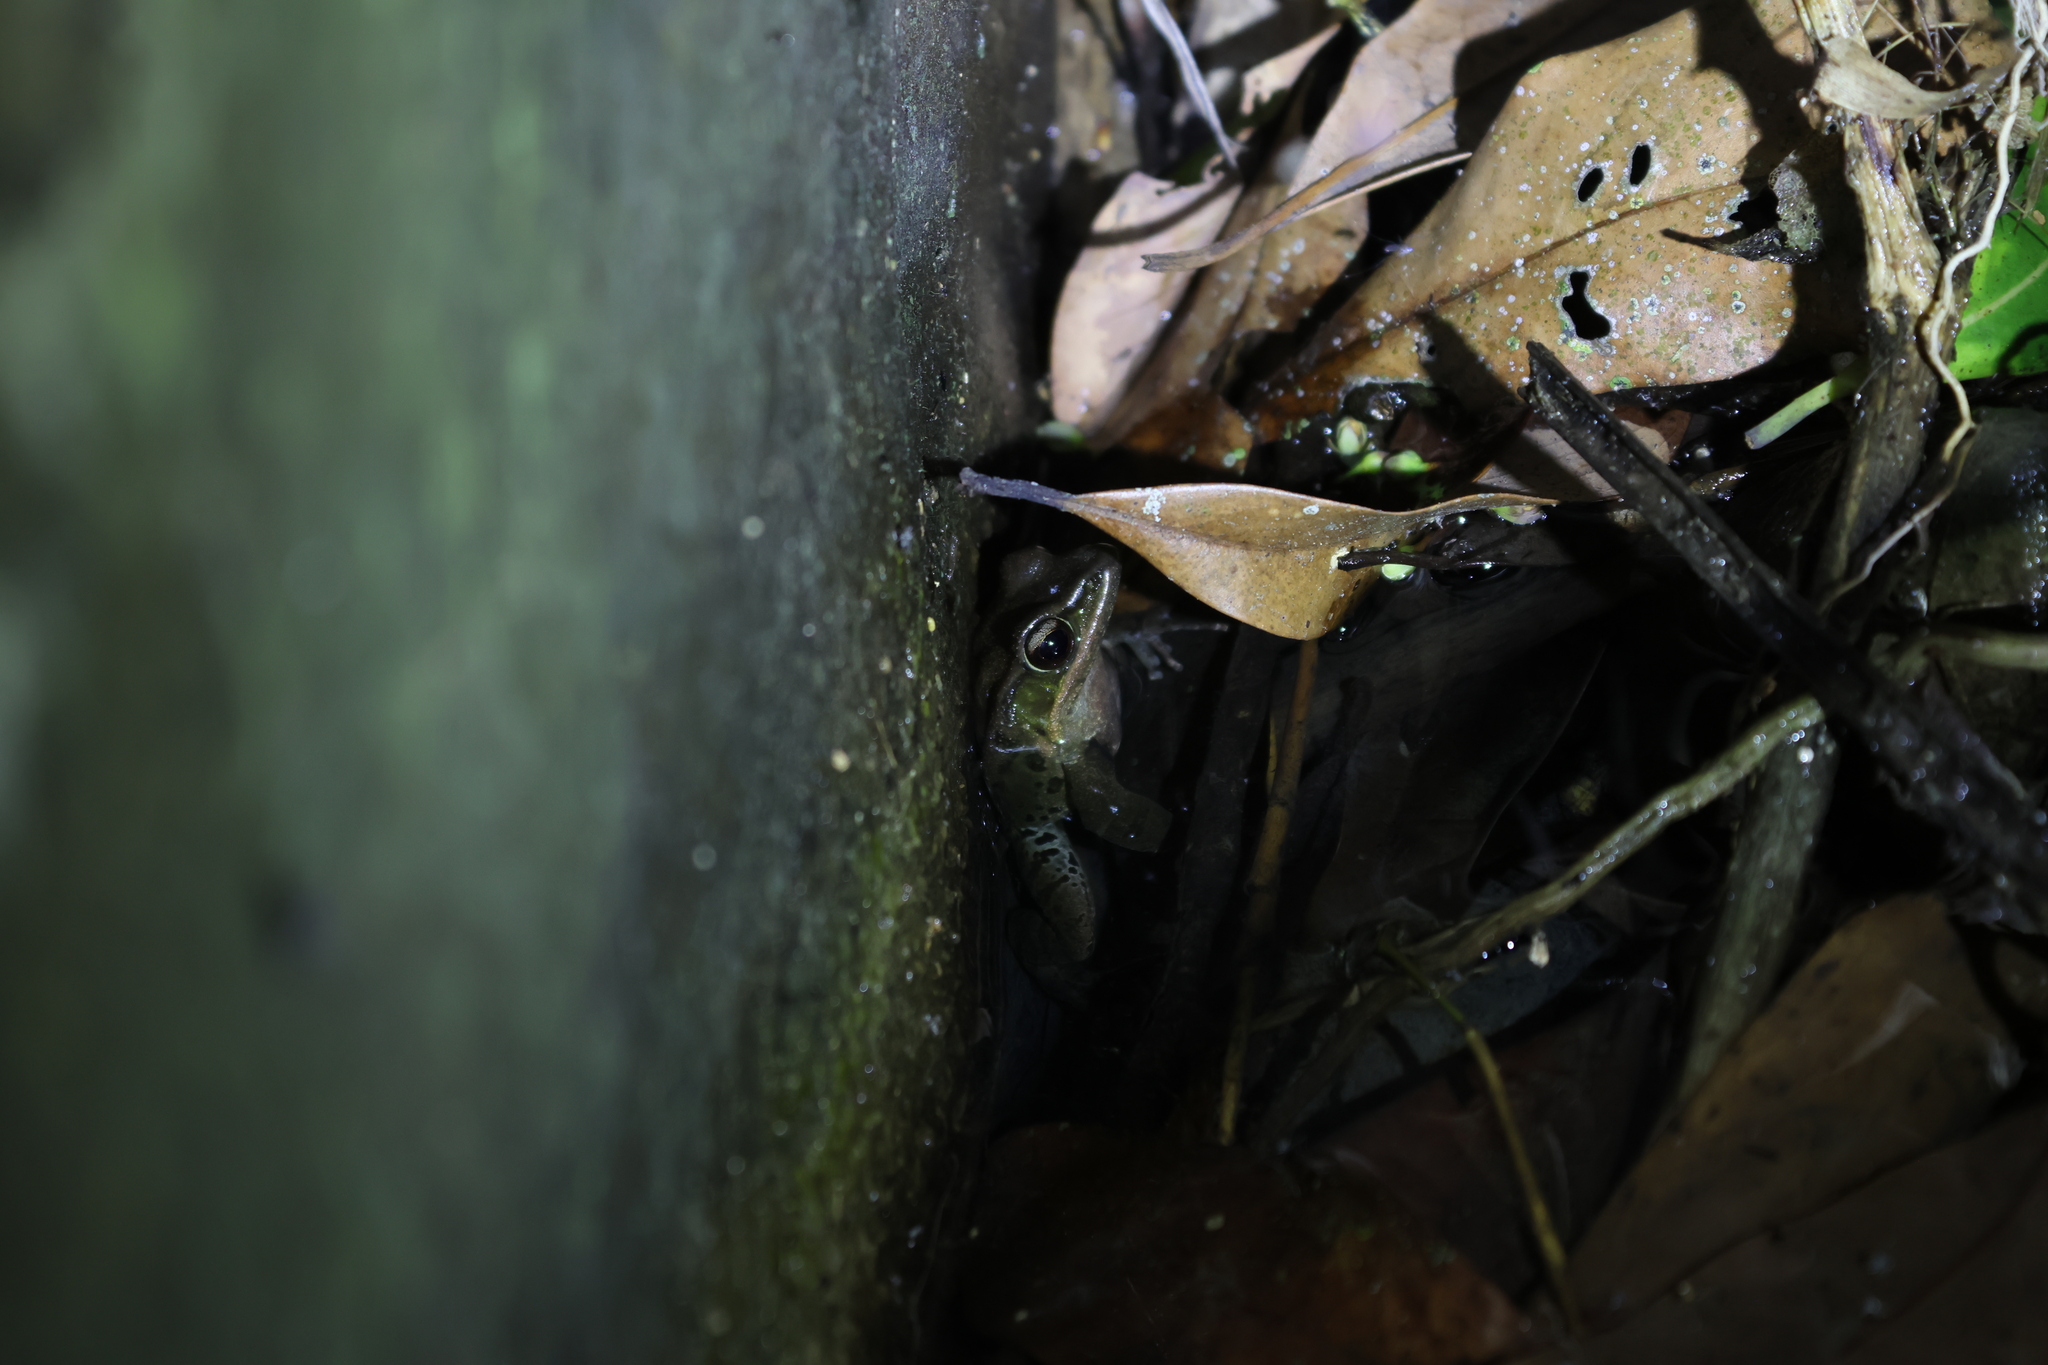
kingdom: Animalia
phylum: Chordata
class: Amphibia
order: Anura
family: Ranidae
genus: Hylarana
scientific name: Hylarana latouchii
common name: Broad-folded frog
